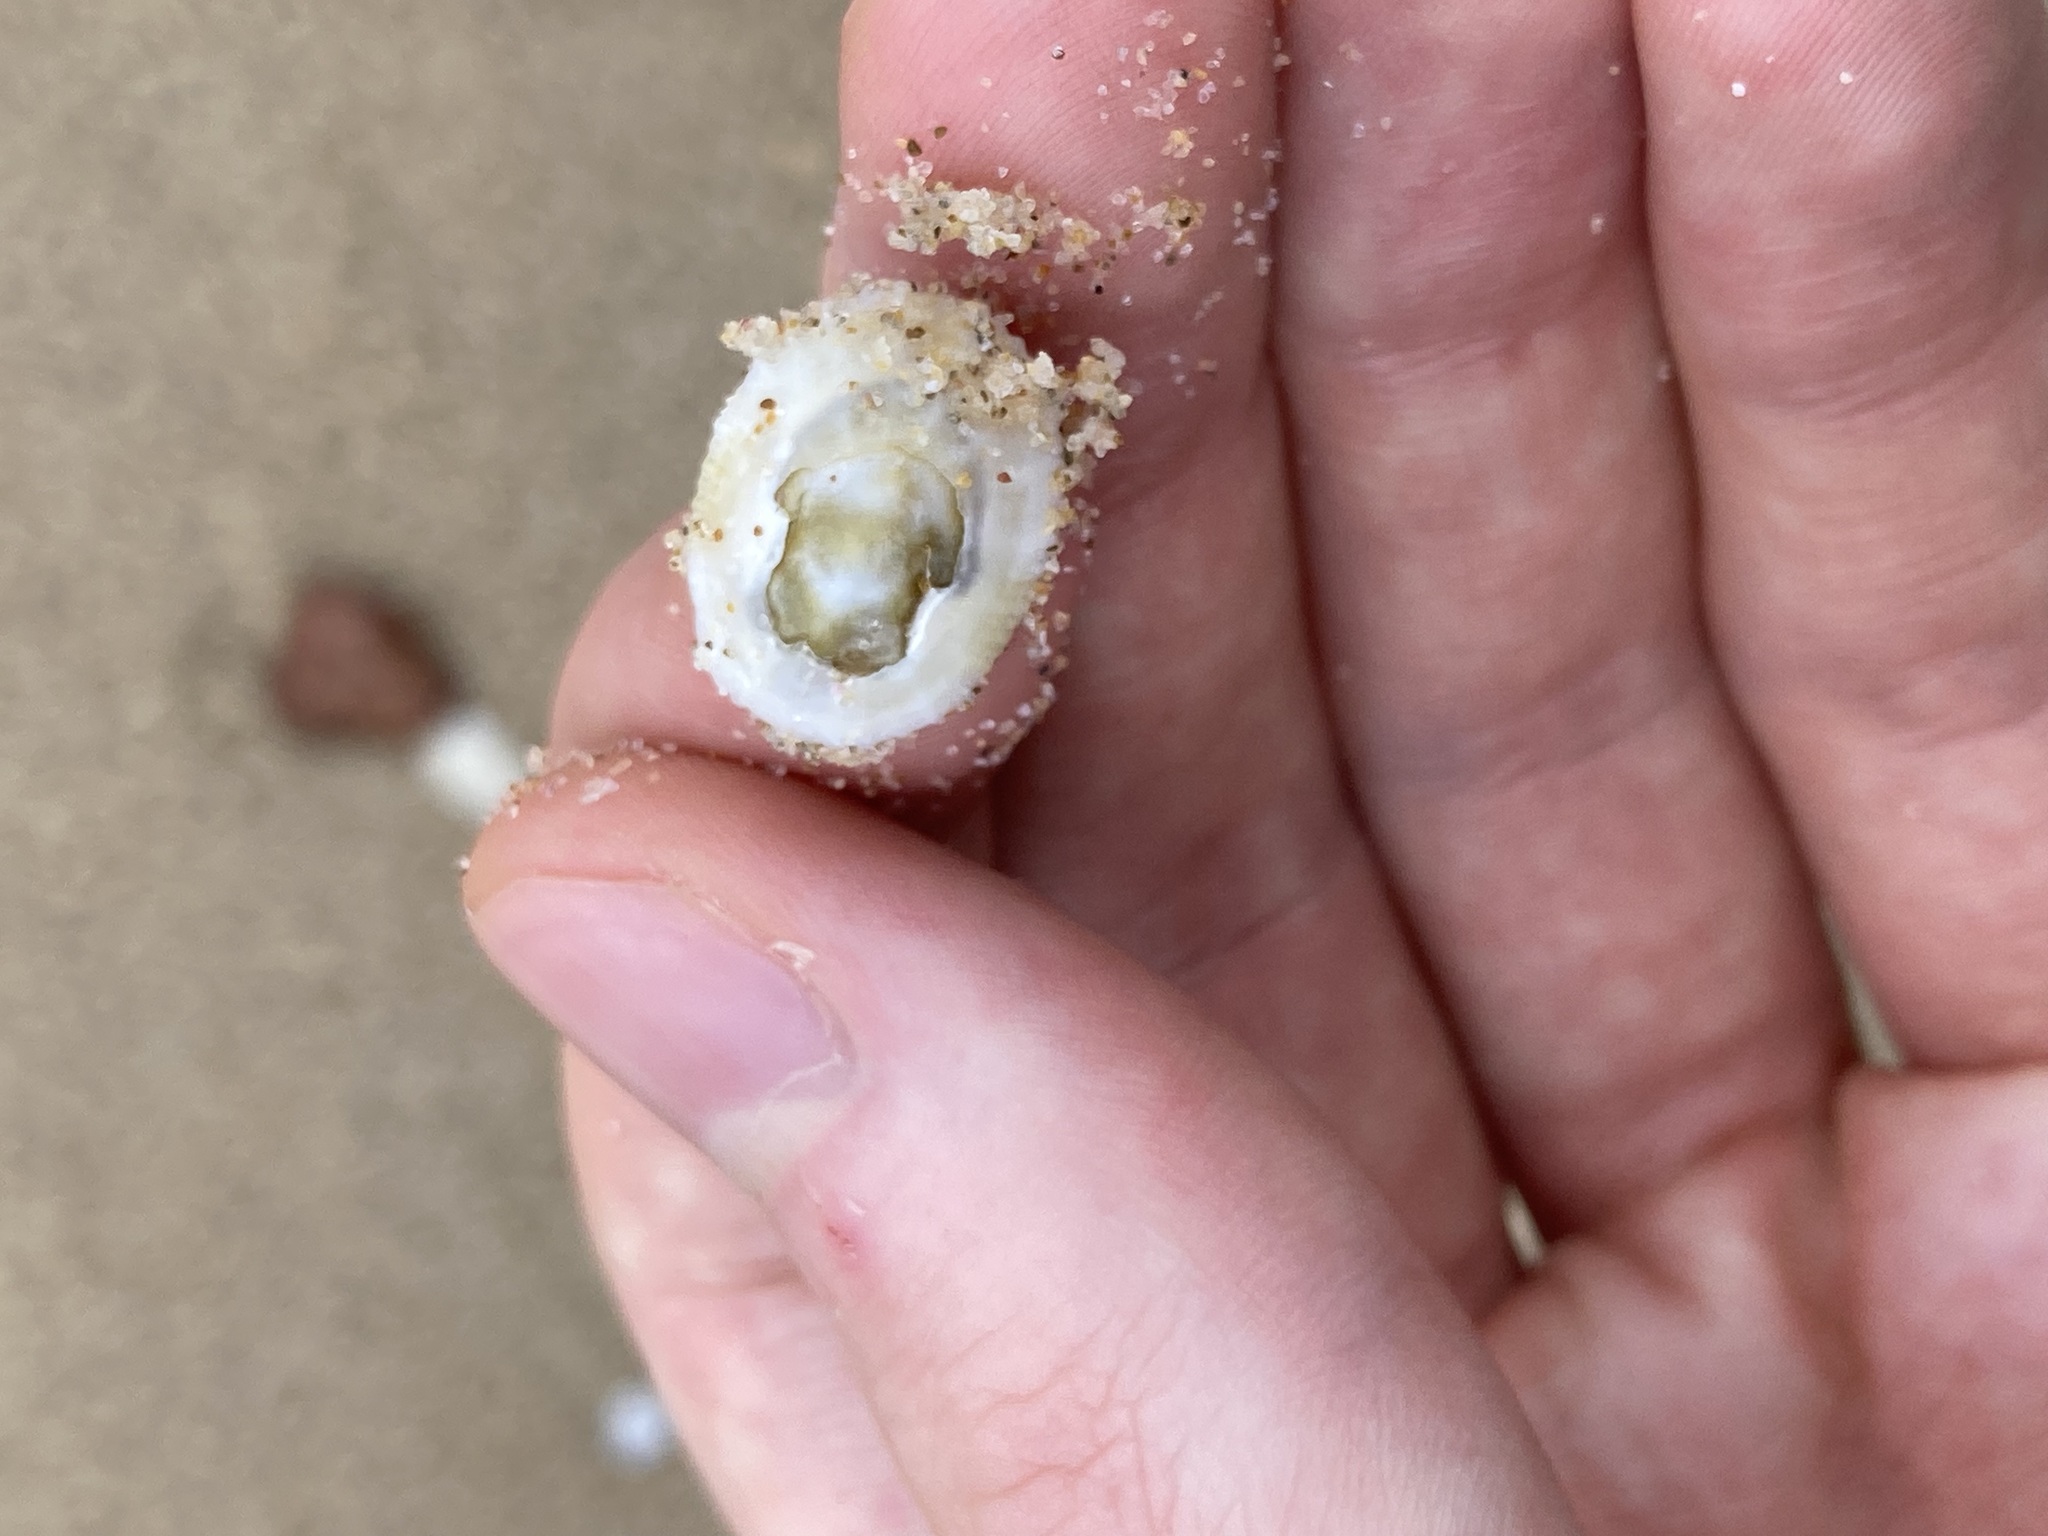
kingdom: Animalia
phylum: Mollusca
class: Gastropoda
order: Lepetellida
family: Fissurellidae
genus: Montfortula
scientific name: Montfortula rugosa
